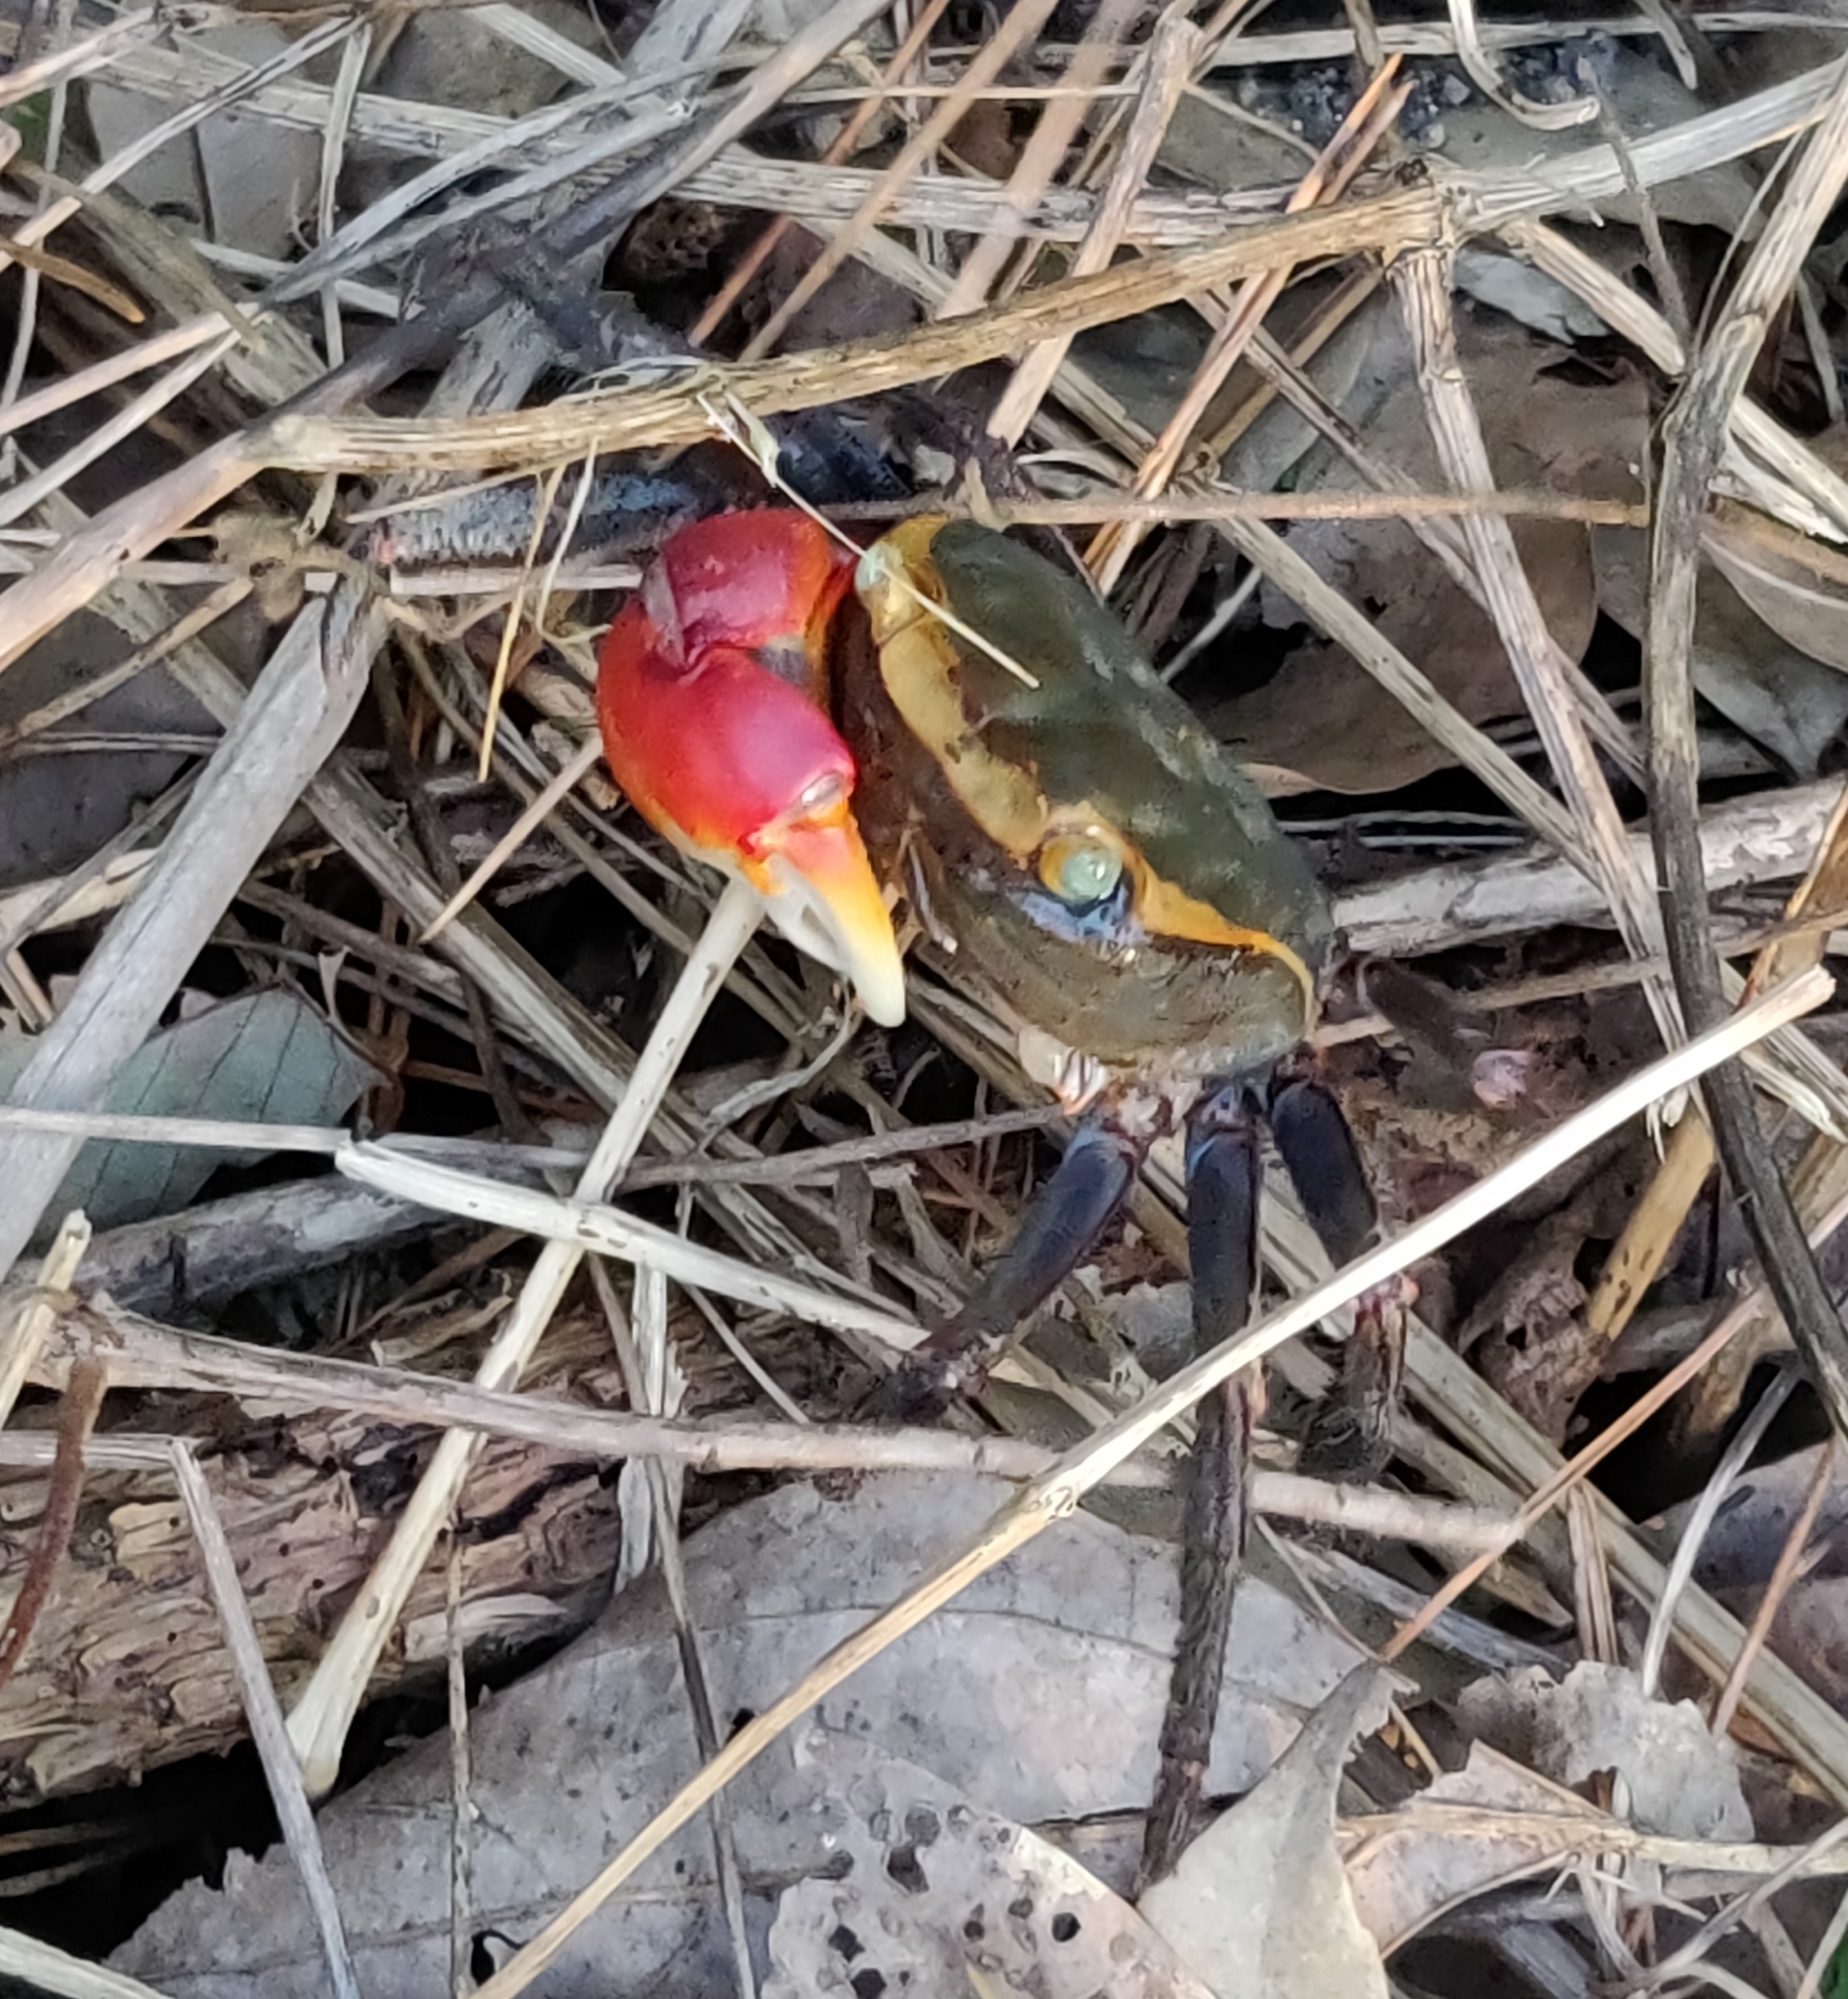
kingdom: Animalia
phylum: Arthropoda
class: Malacostraca
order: Decapoda
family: Sesarmidae
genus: Chiromantes
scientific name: Chiromantes haematocheir
